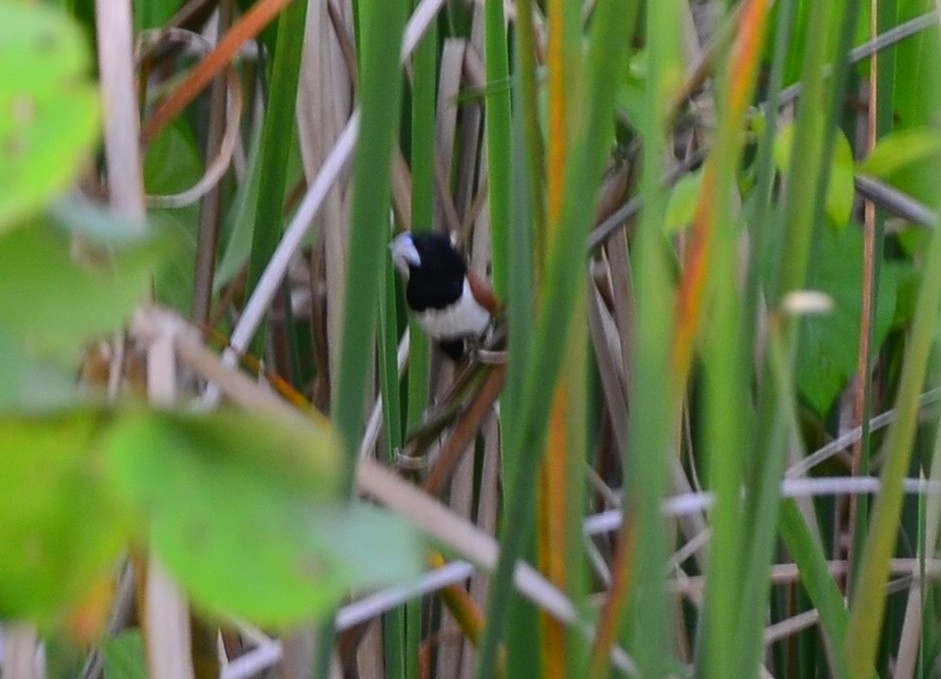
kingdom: Animalia
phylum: Chordata
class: Aves
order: Passeriformes
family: Estrildidae
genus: Lonchura
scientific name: Lonchura malacca
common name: Tricolored munia
